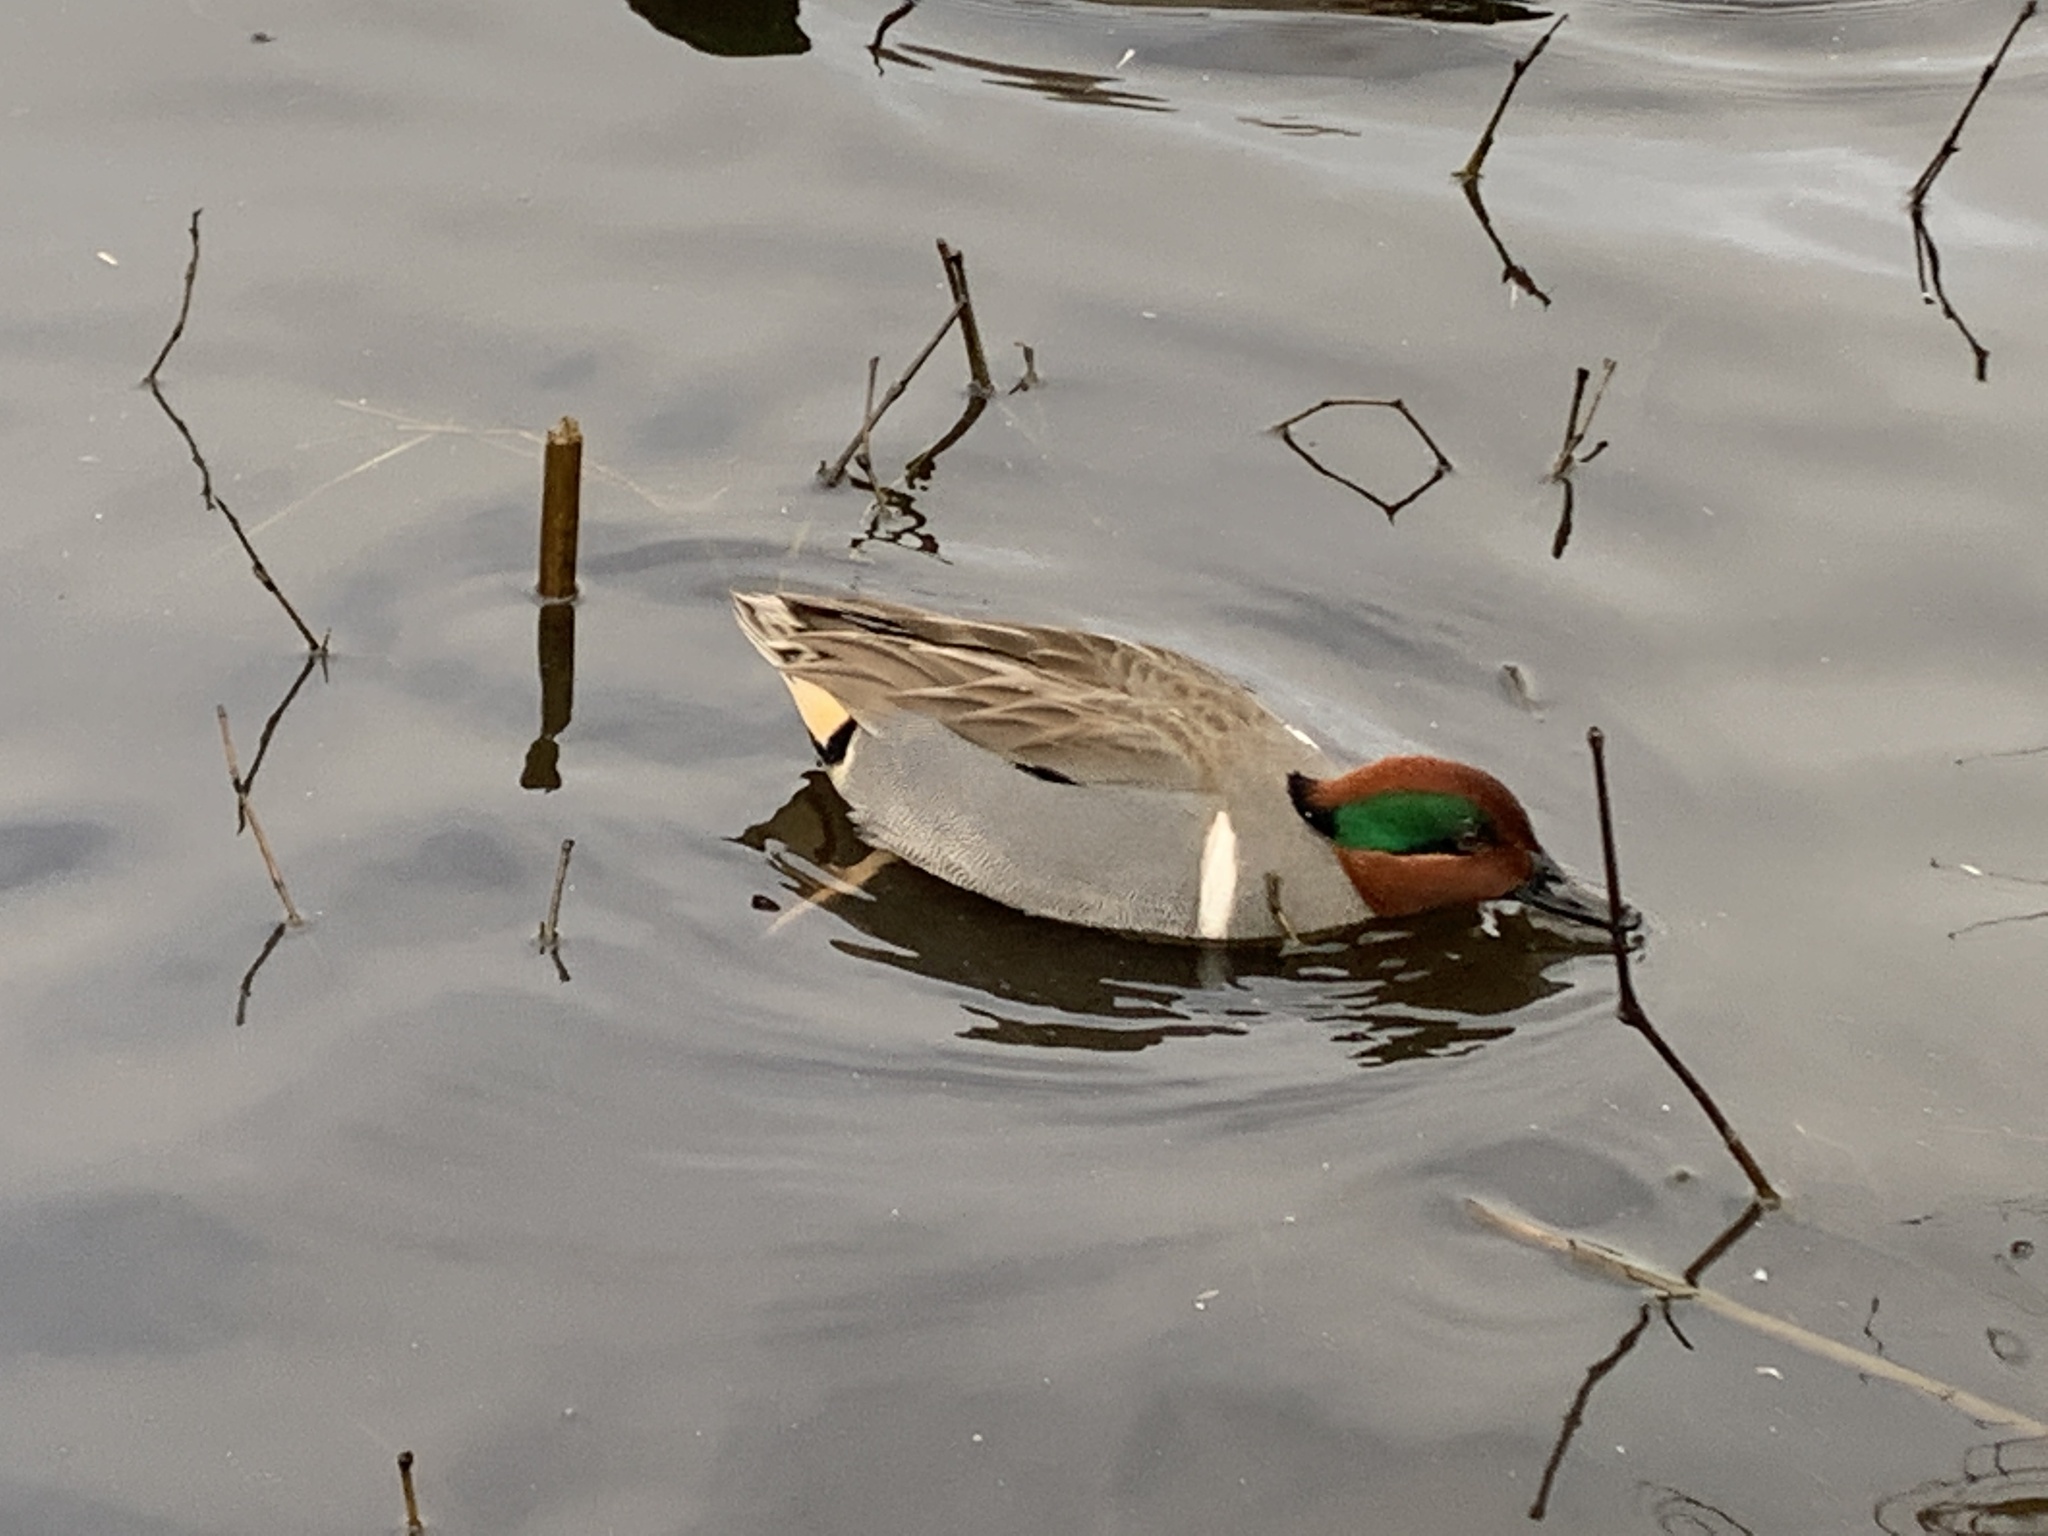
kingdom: Animalia
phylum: Chordata
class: Aves
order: Anseriformes
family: Anatidae
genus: Anas
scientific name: Anas crecca
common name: Eurasian teal
